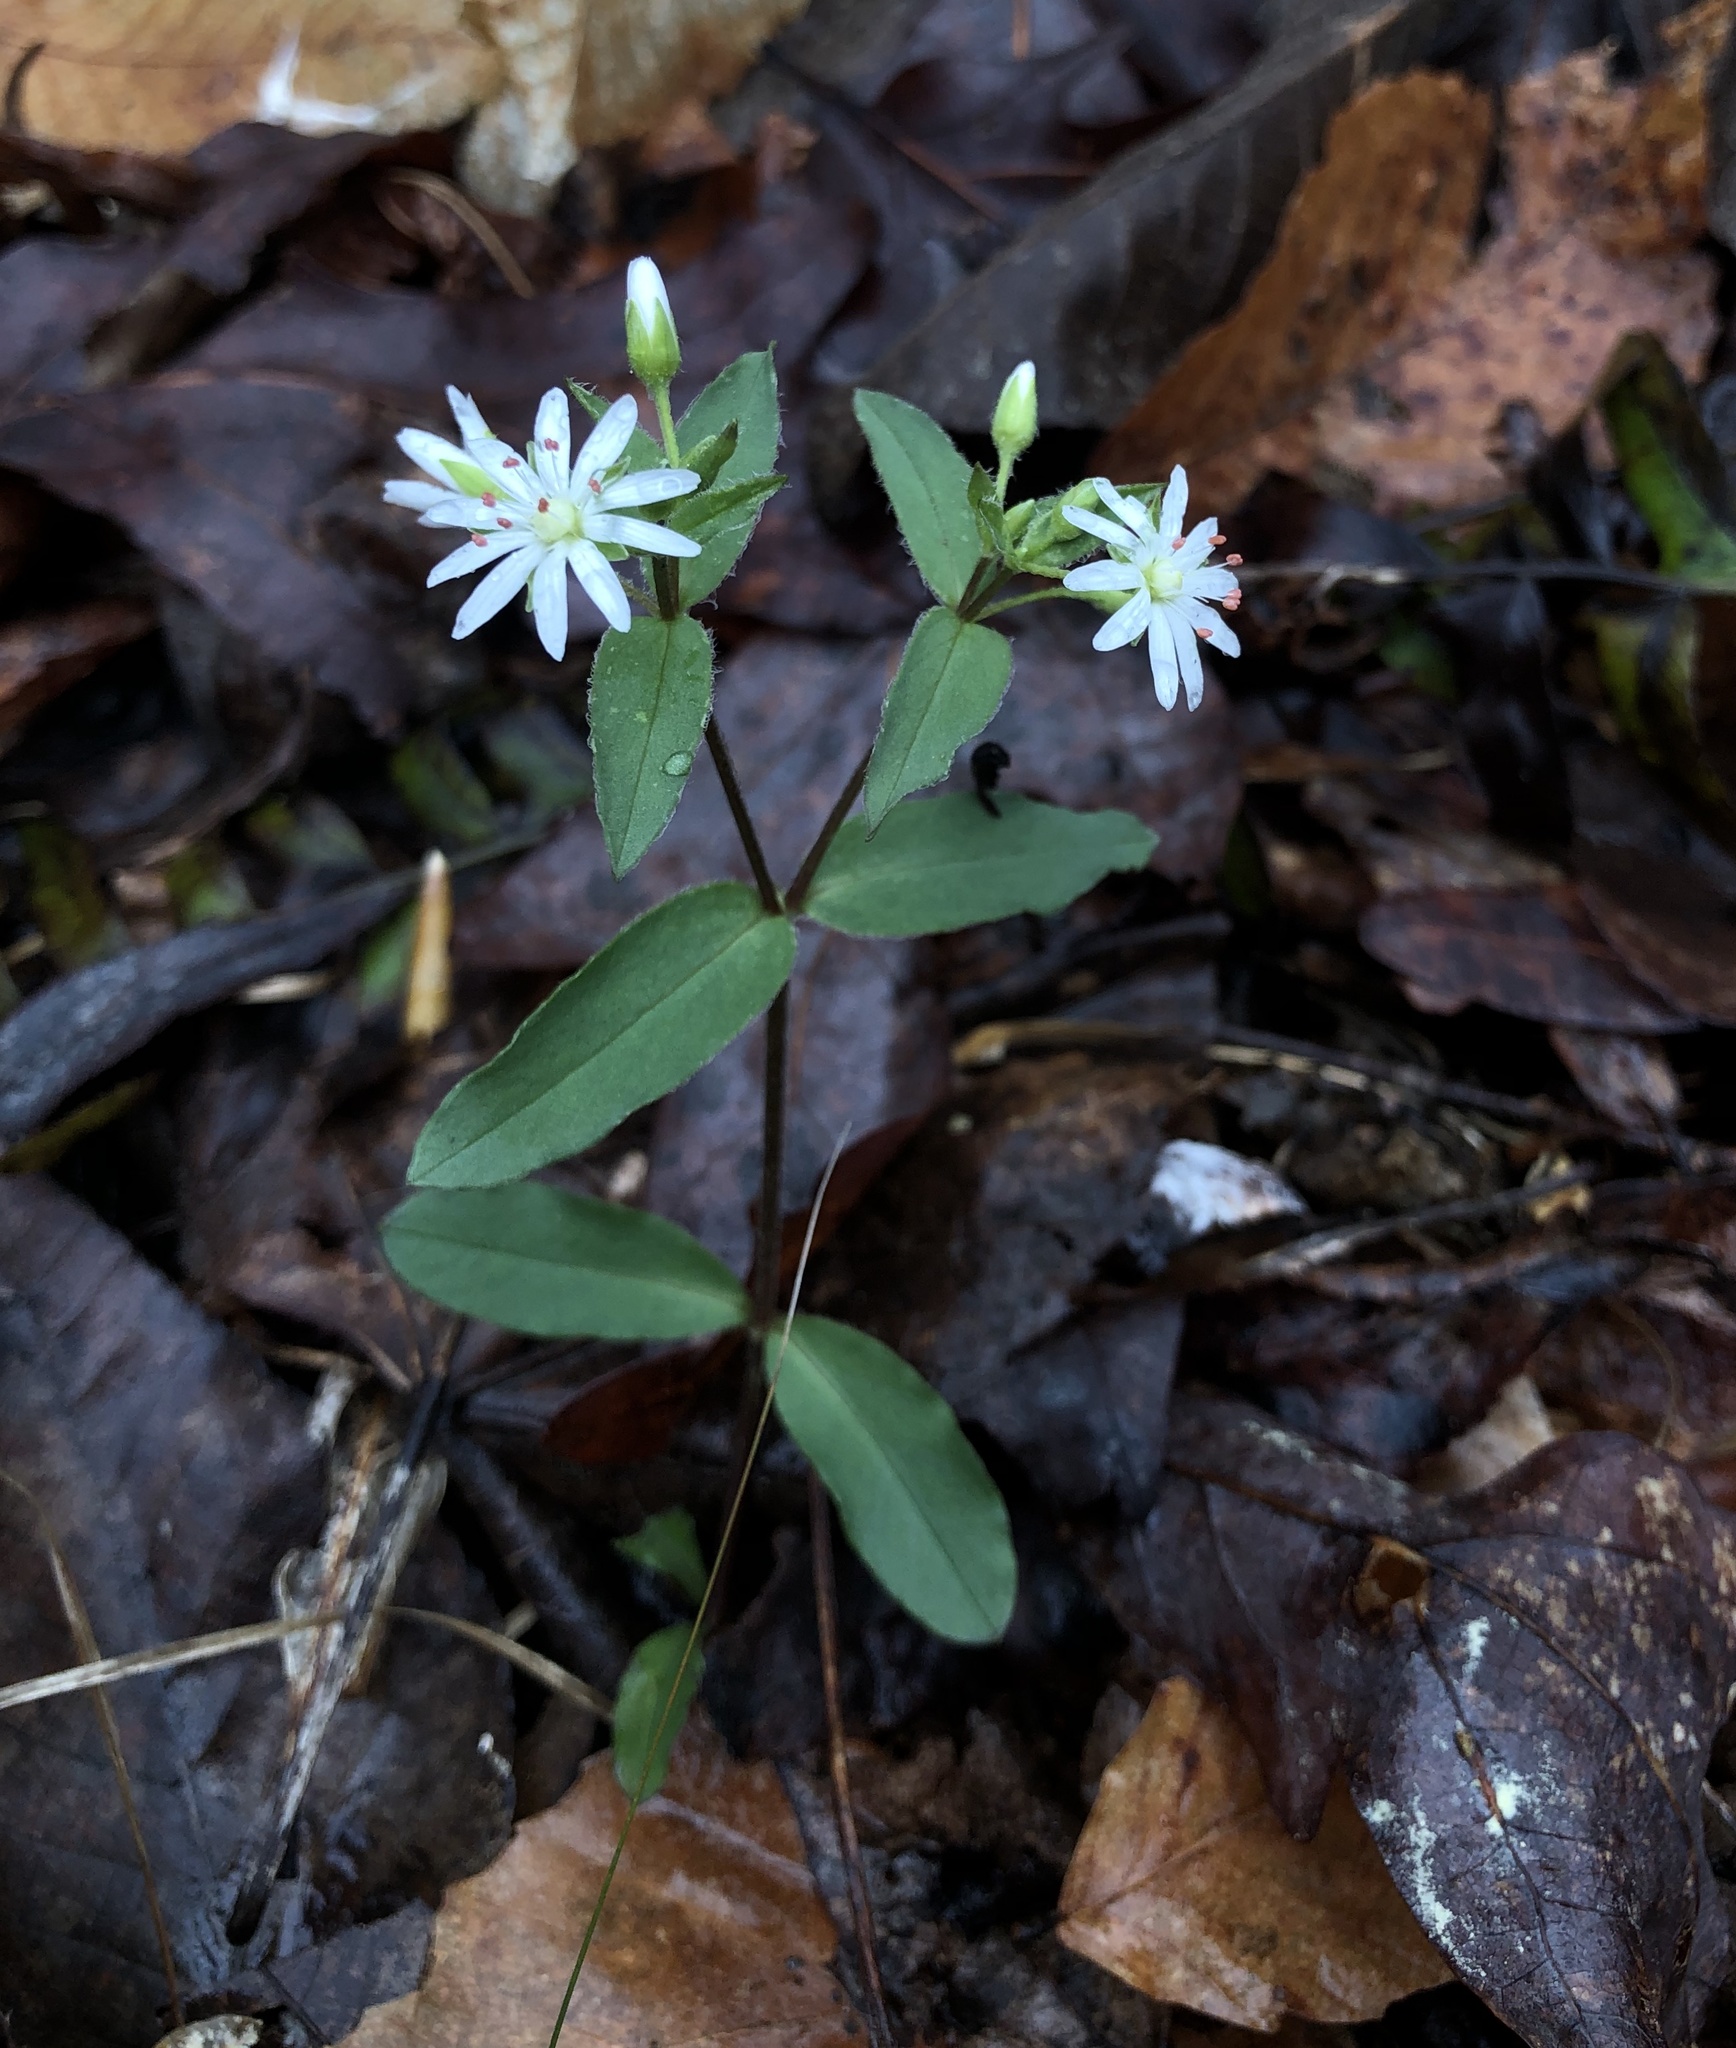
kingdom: Plantae
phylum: Tracheophyta
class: Magnoliopsida
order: Caryophyllales
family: Caryophyllaceae
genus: Stellaria
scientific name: Stellaria pubera
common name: Star chickweed
